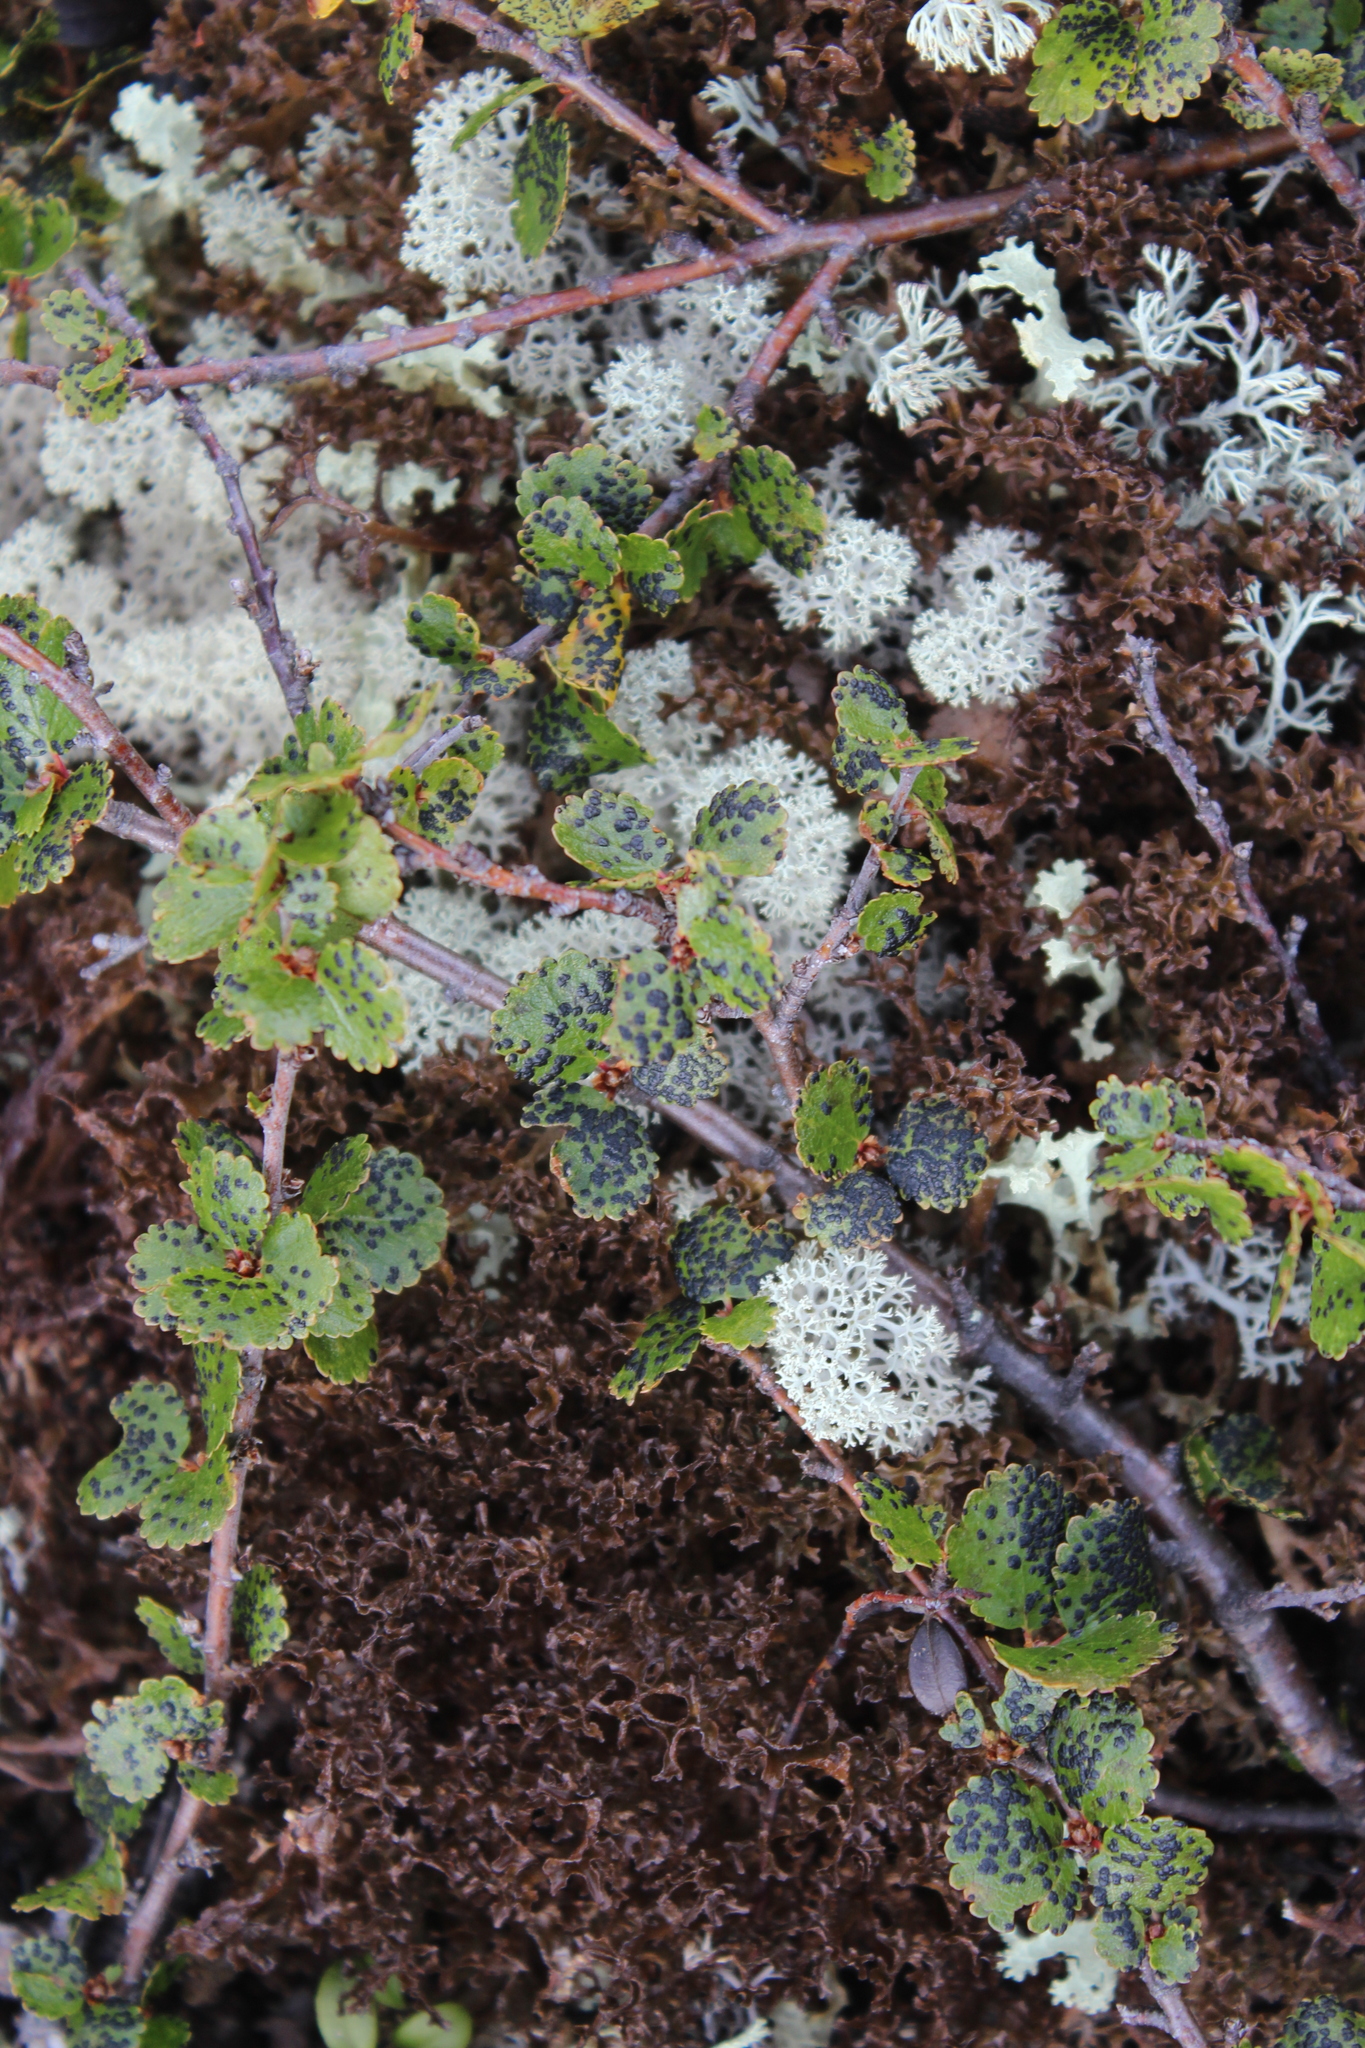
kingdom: Fungi
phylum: Ascomycota
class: Dothideomycetes
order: Venturiales
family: Venturiaceae
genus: Atopospora
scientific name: Atopospora betulina
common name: Birch tarspot
